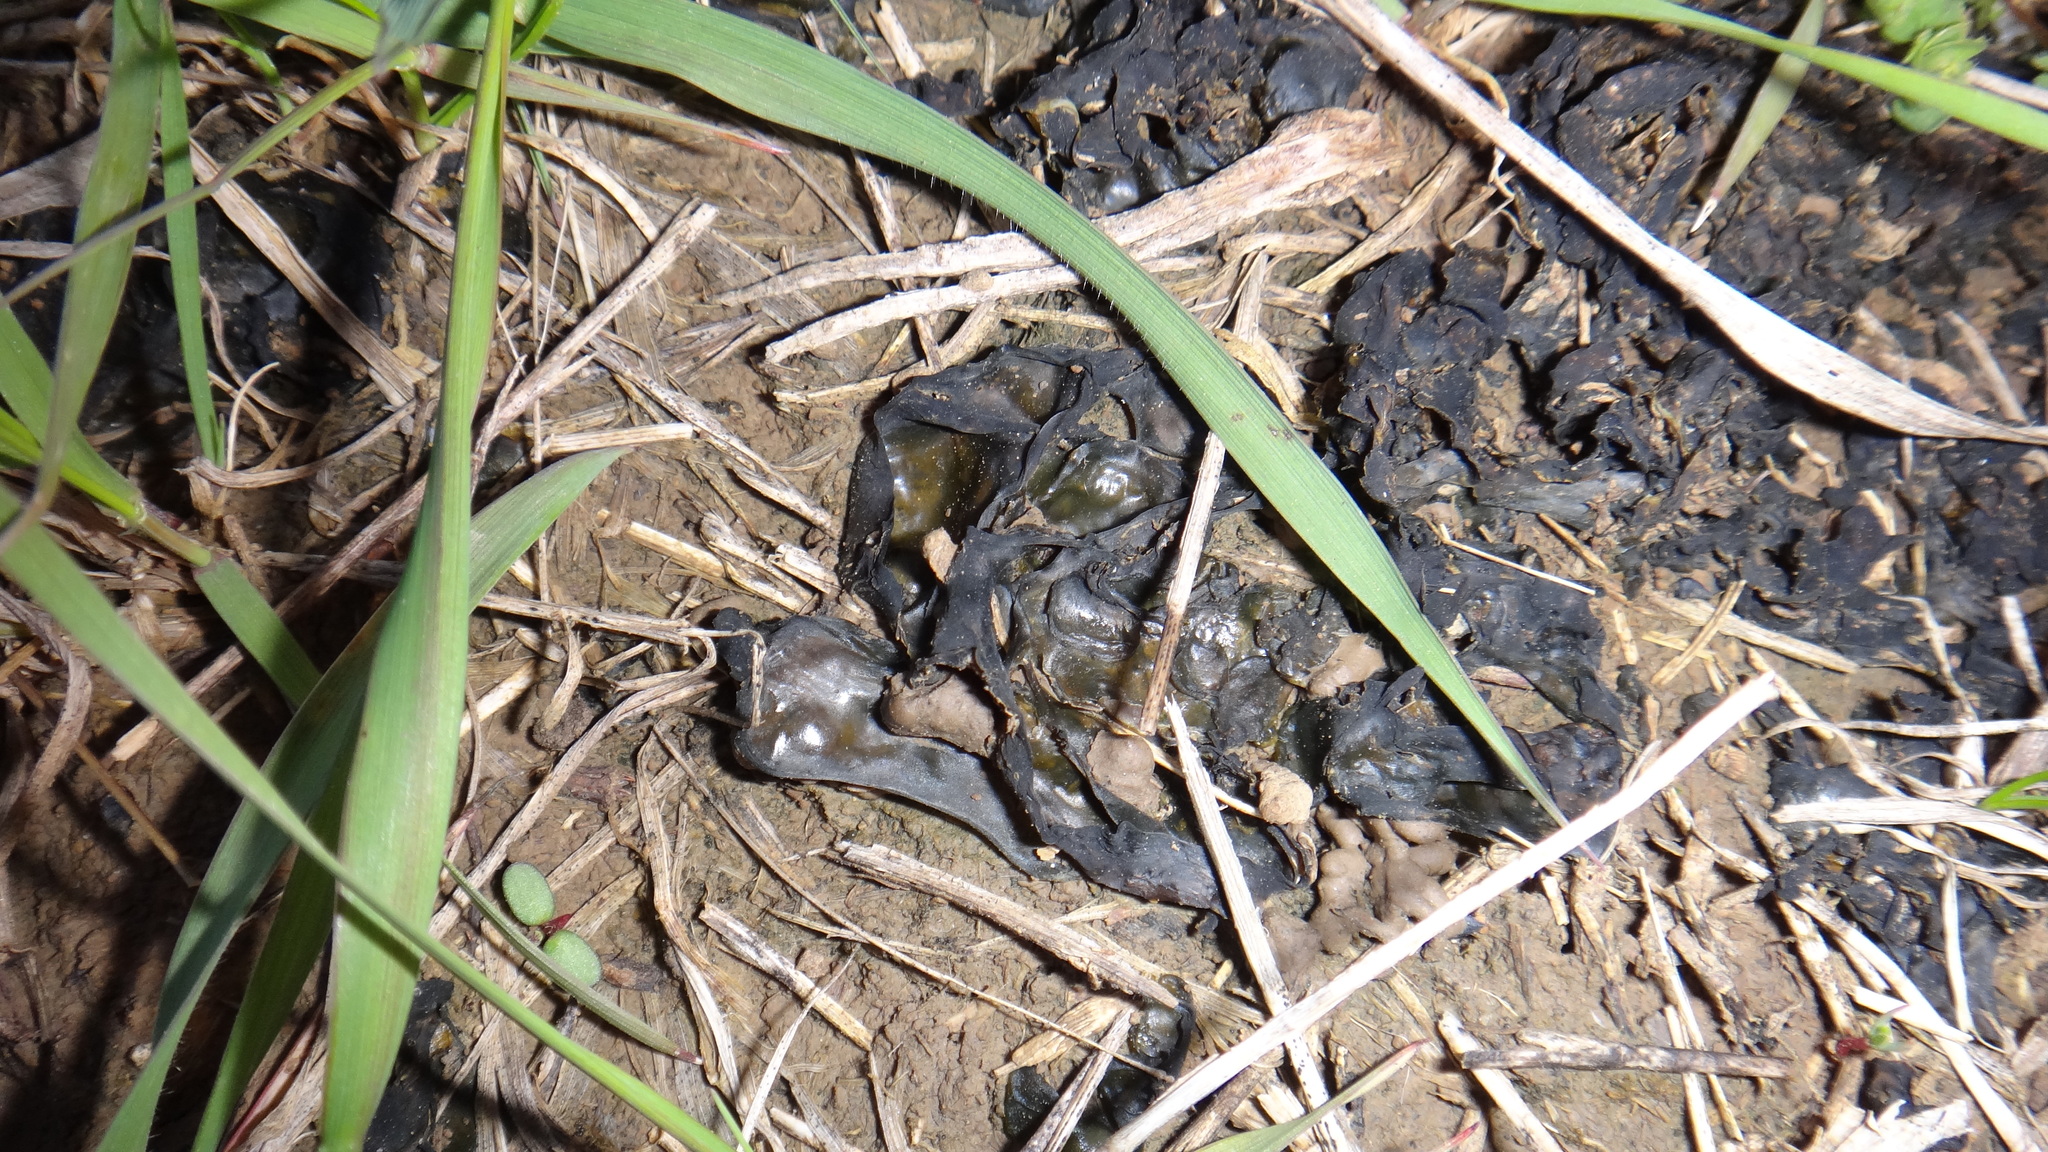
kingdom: Bacteria
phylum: Cyanobacteria
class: Cyanobacteriia
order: Cyanobacteriales
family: Nostocaceae
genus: Nostoc
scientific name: Nostoc commune
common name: Star jelly
